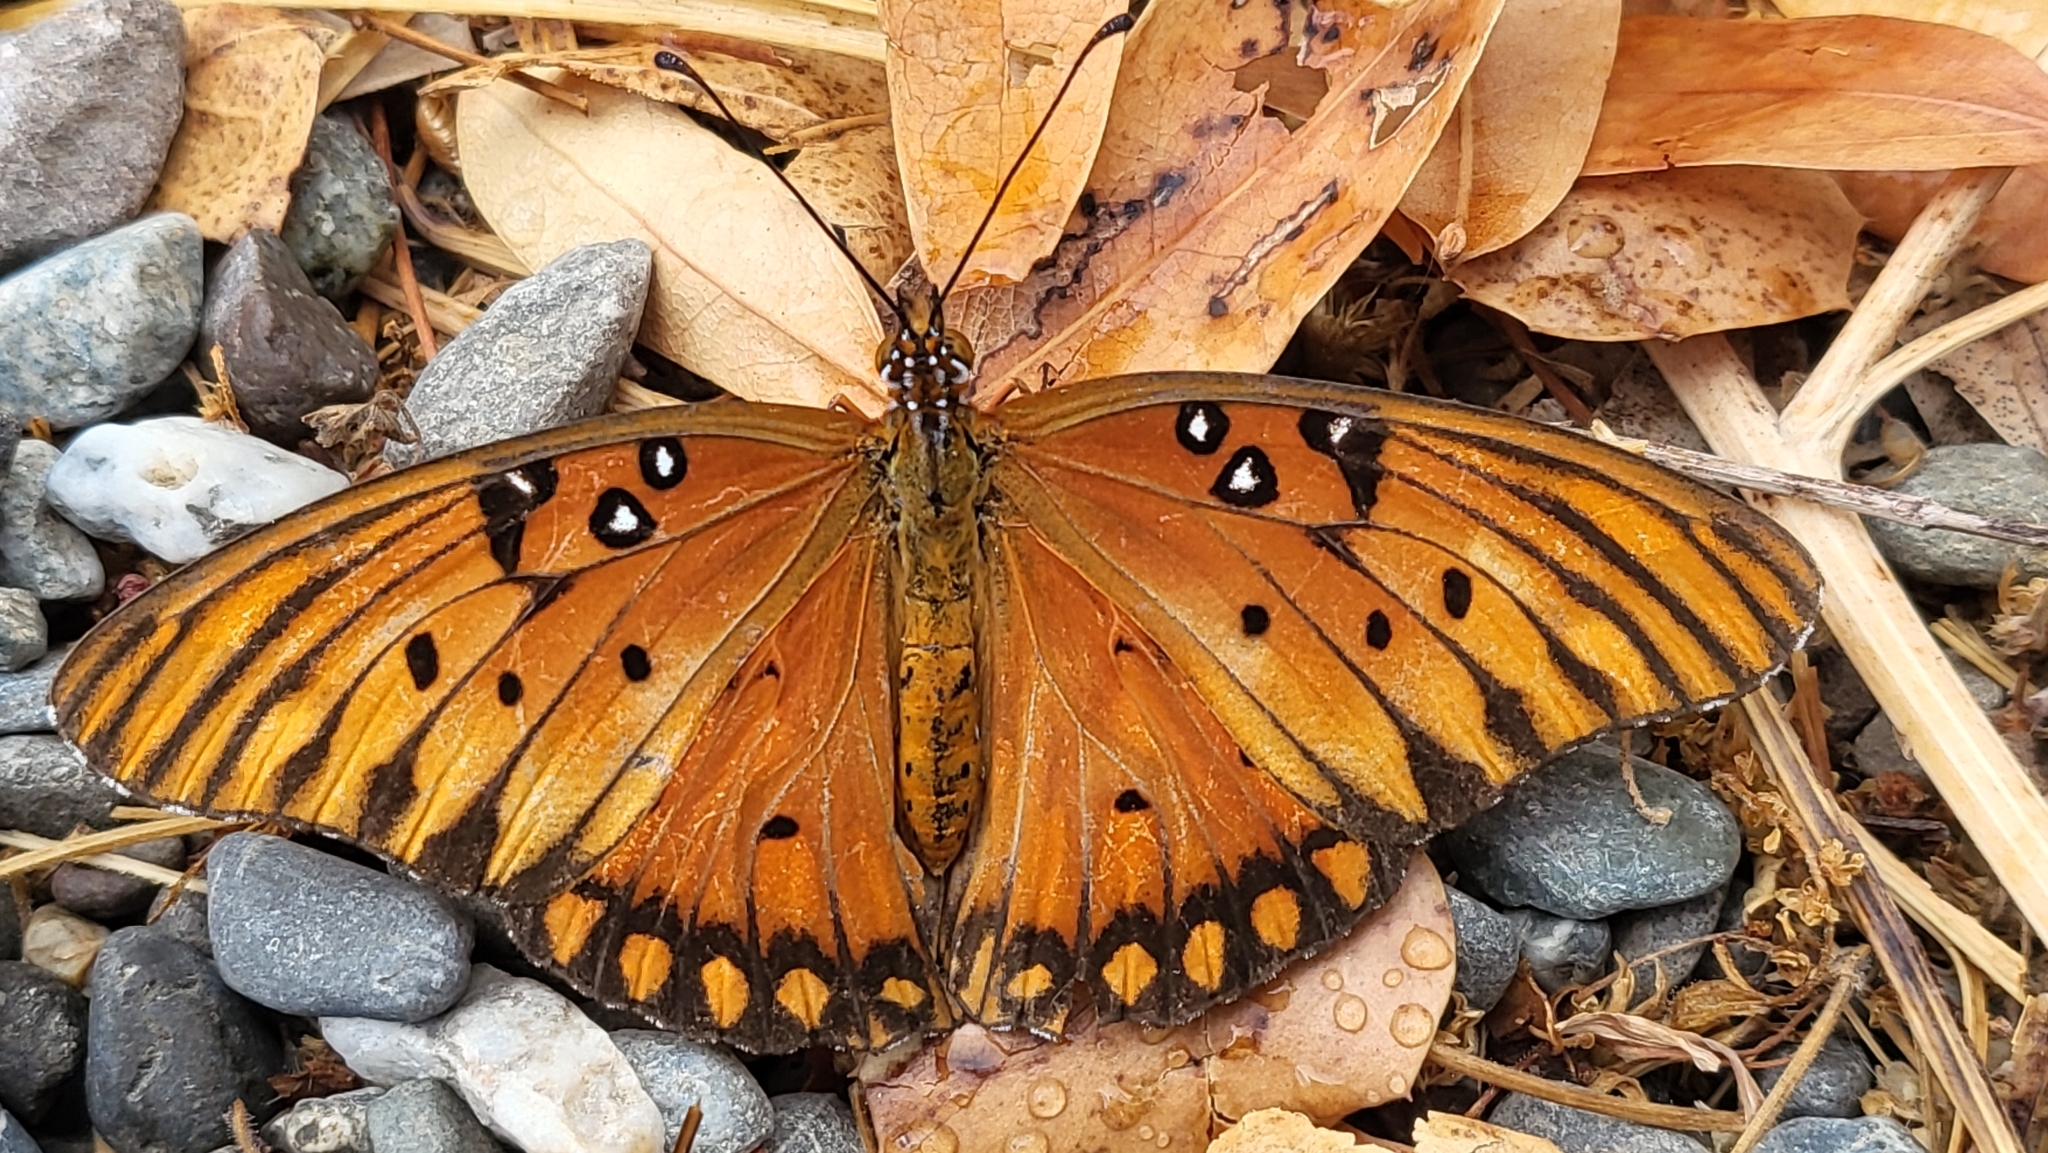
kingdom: Animalia
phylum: Arthropoda
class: Insecta
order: Lepidoptera
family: Nymphalidae
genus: Dione
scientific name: Dione vanillae
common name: Gulf fritillary
